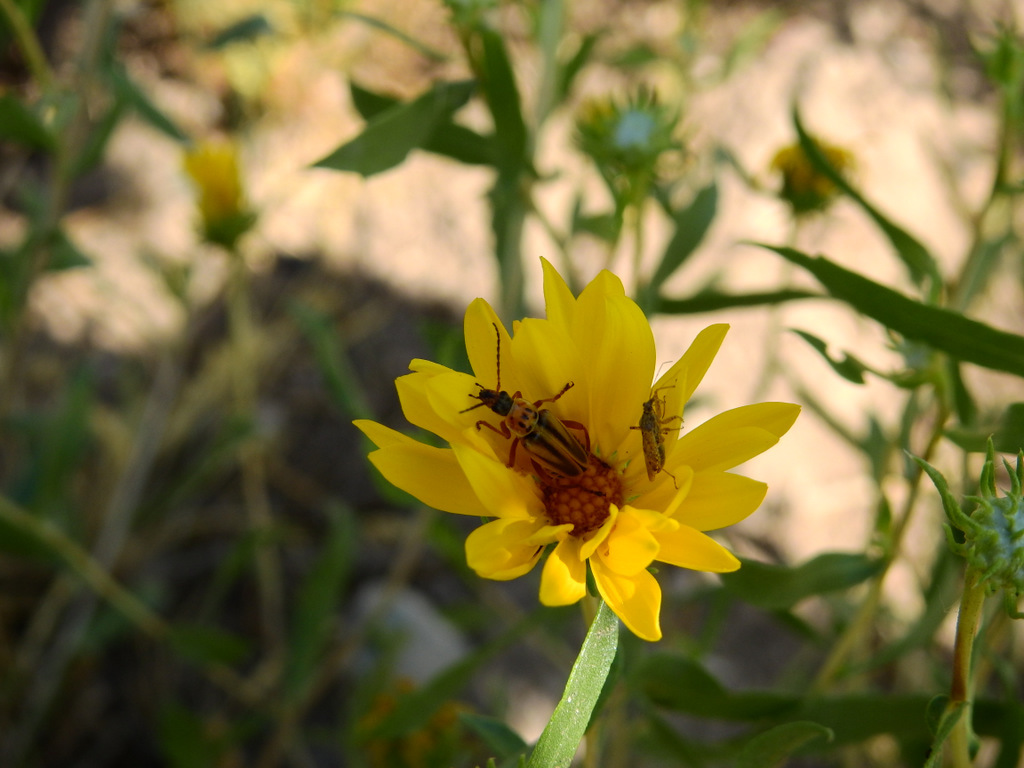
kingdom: Plantae
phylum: Tracheophyta
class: Magnoliopsida
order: Asterales
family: Asteraceae
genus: Grindelia
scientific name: Grindelia pulchella
